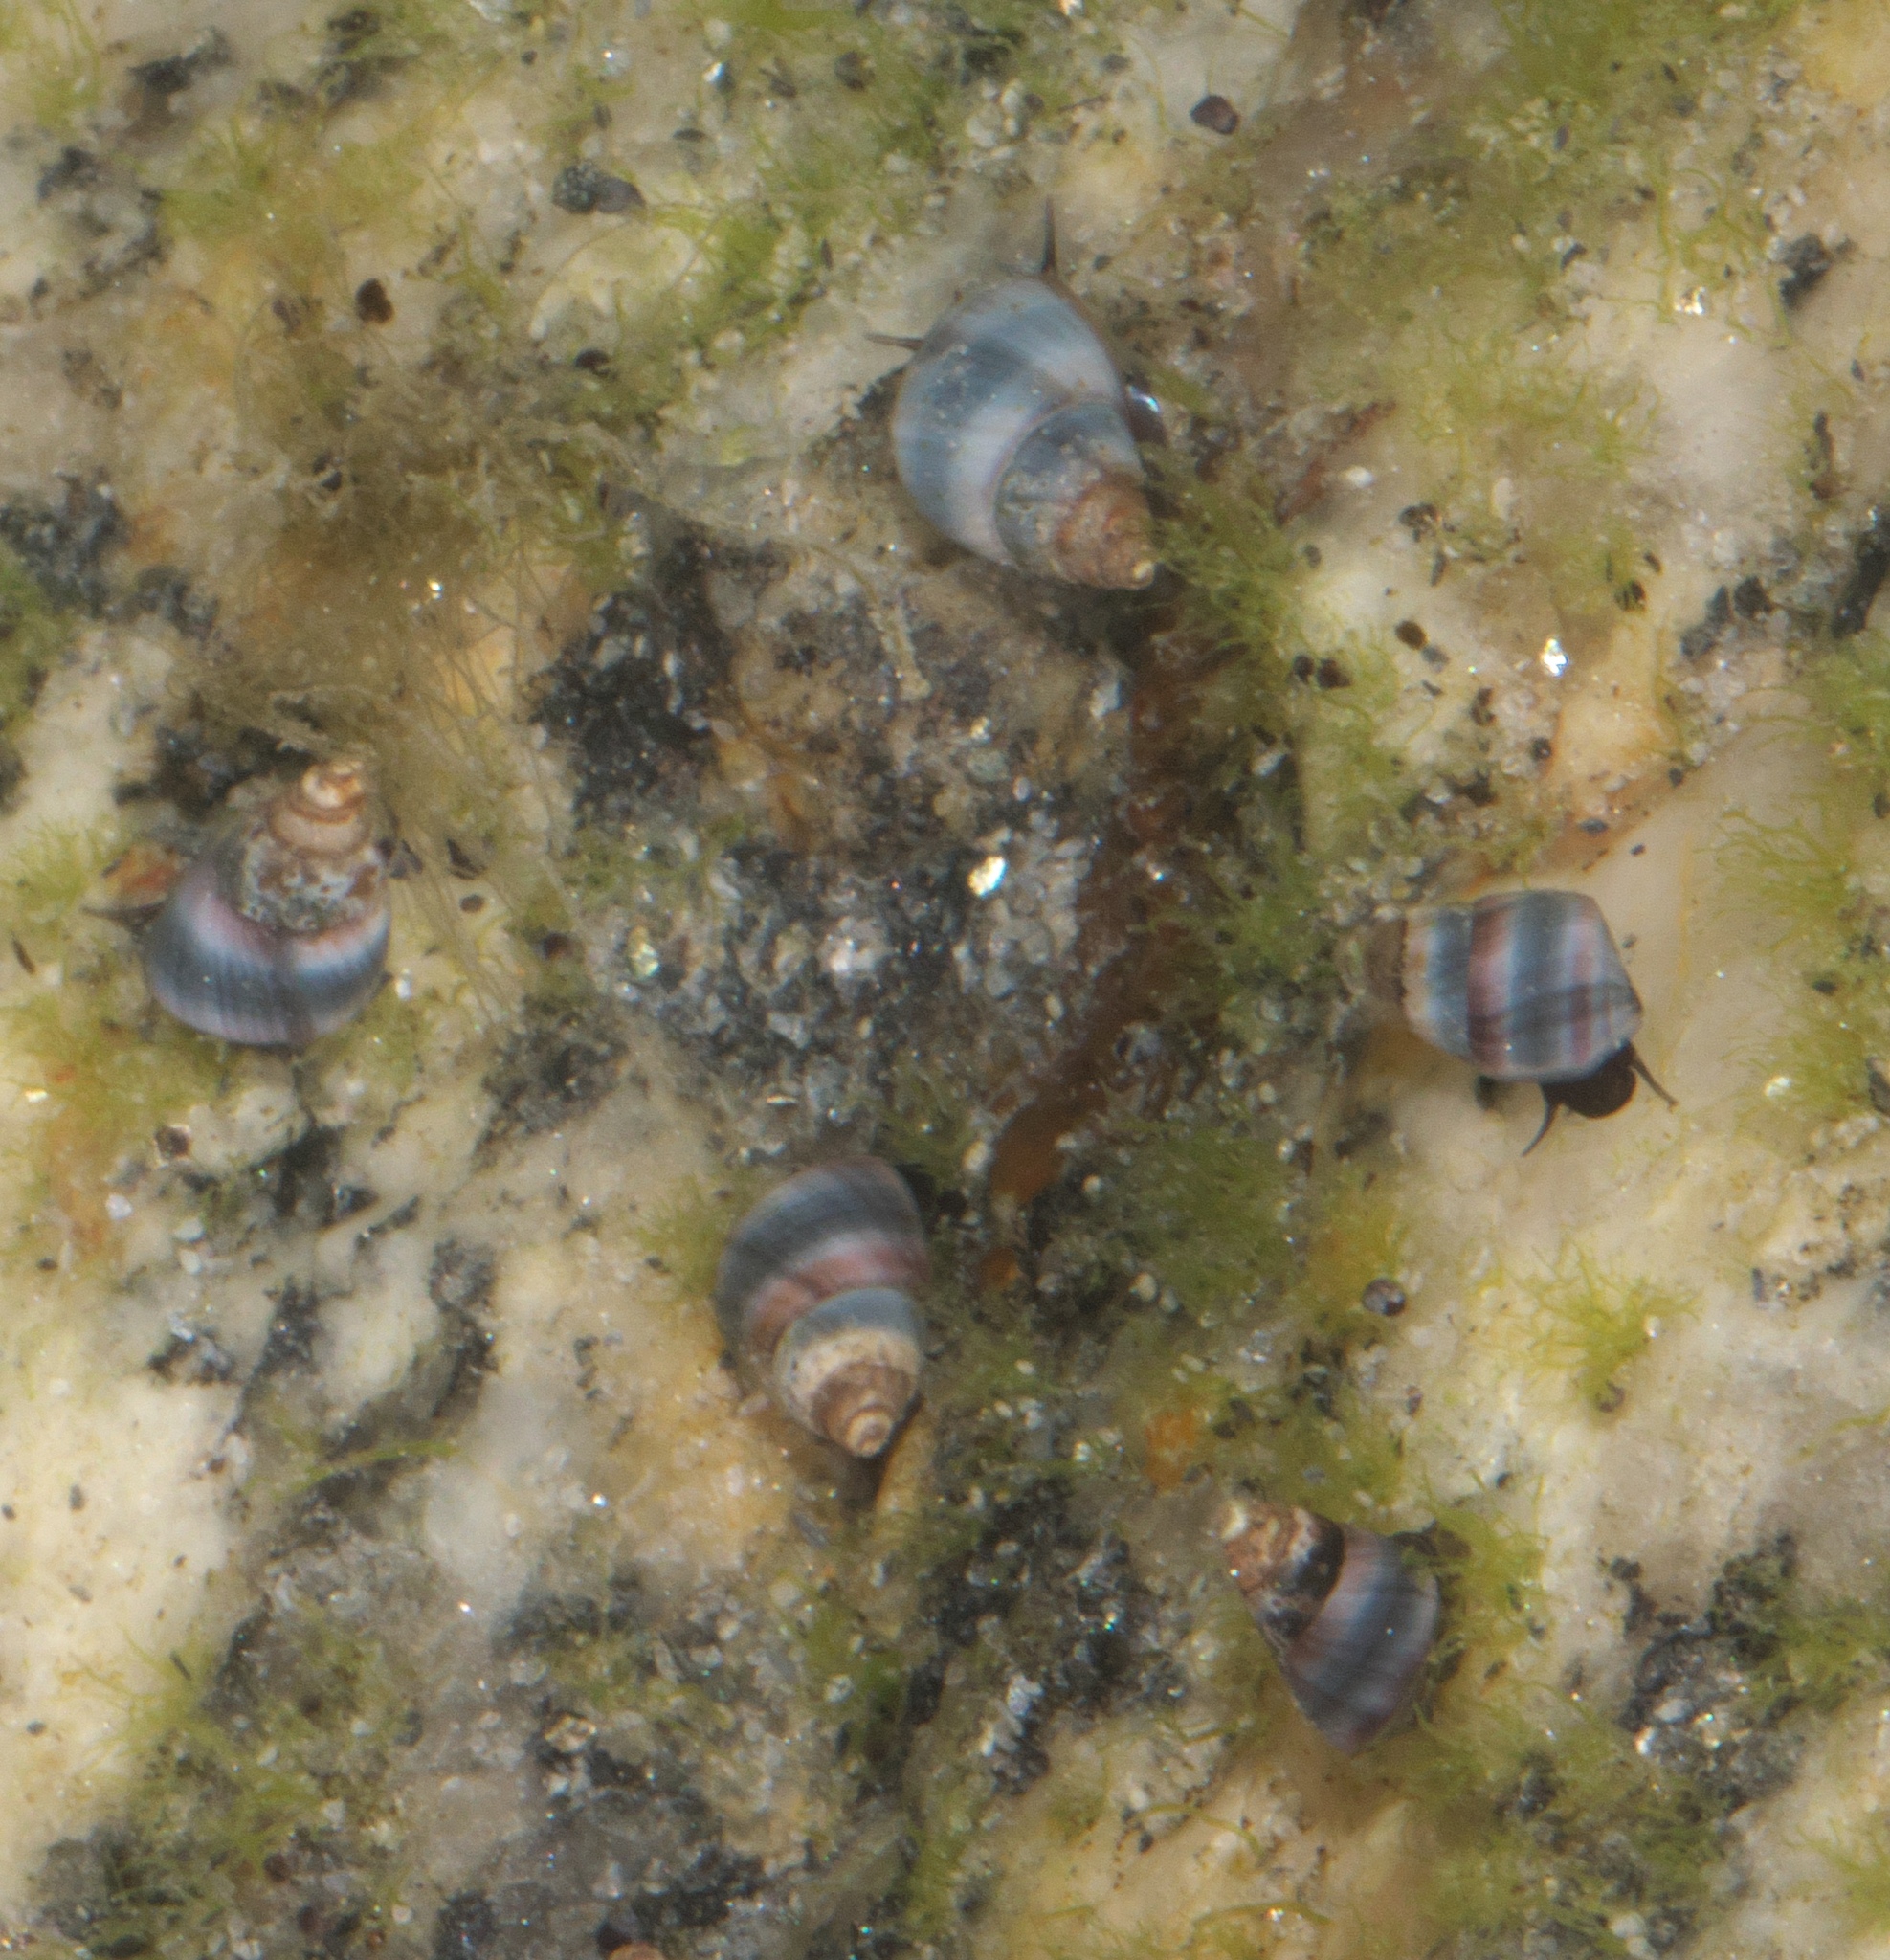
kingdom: Animalia
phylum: Mollusca
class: Gastropoda
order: Littorinimorpha
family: Littorinidae
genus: Austrolittorina
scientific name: Austrolittorina antipodum
